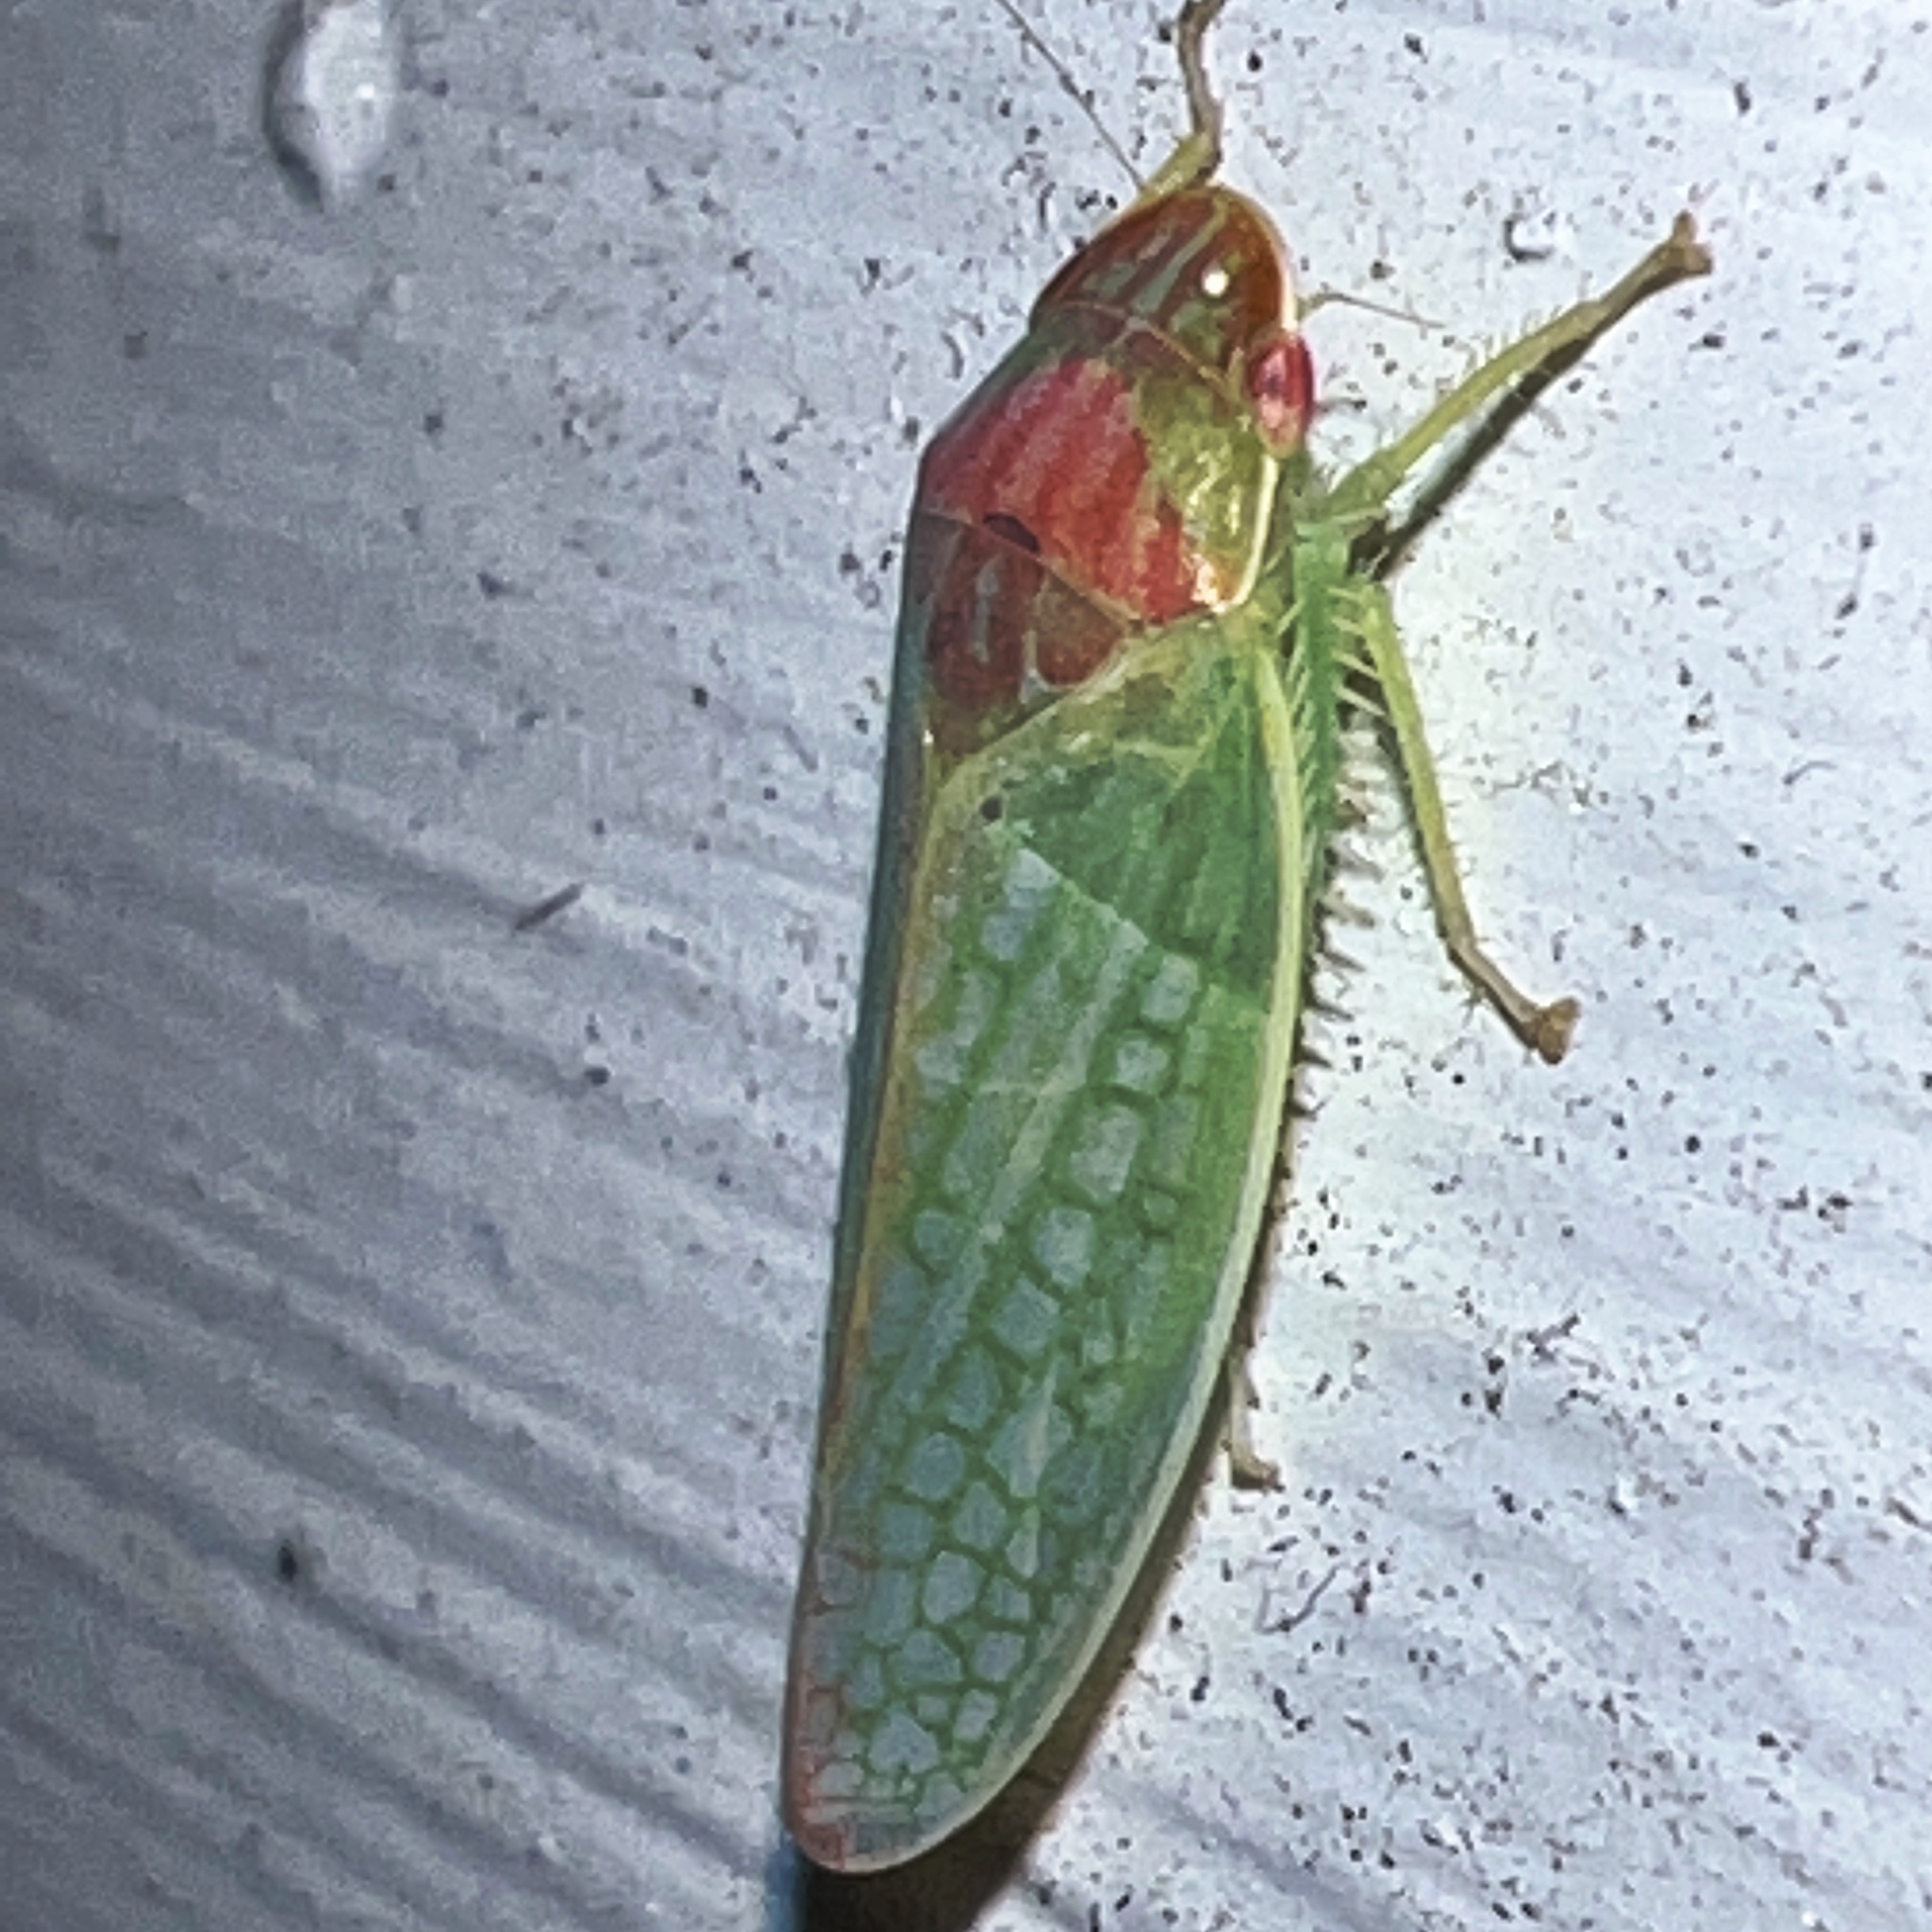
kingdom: Animalia
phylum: Arthropoda
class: Insecta
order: Hemiptera
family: Cicadellidae
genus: Gyponana
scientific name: Gyponana octolineata
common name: Eight-lined leafhopper
